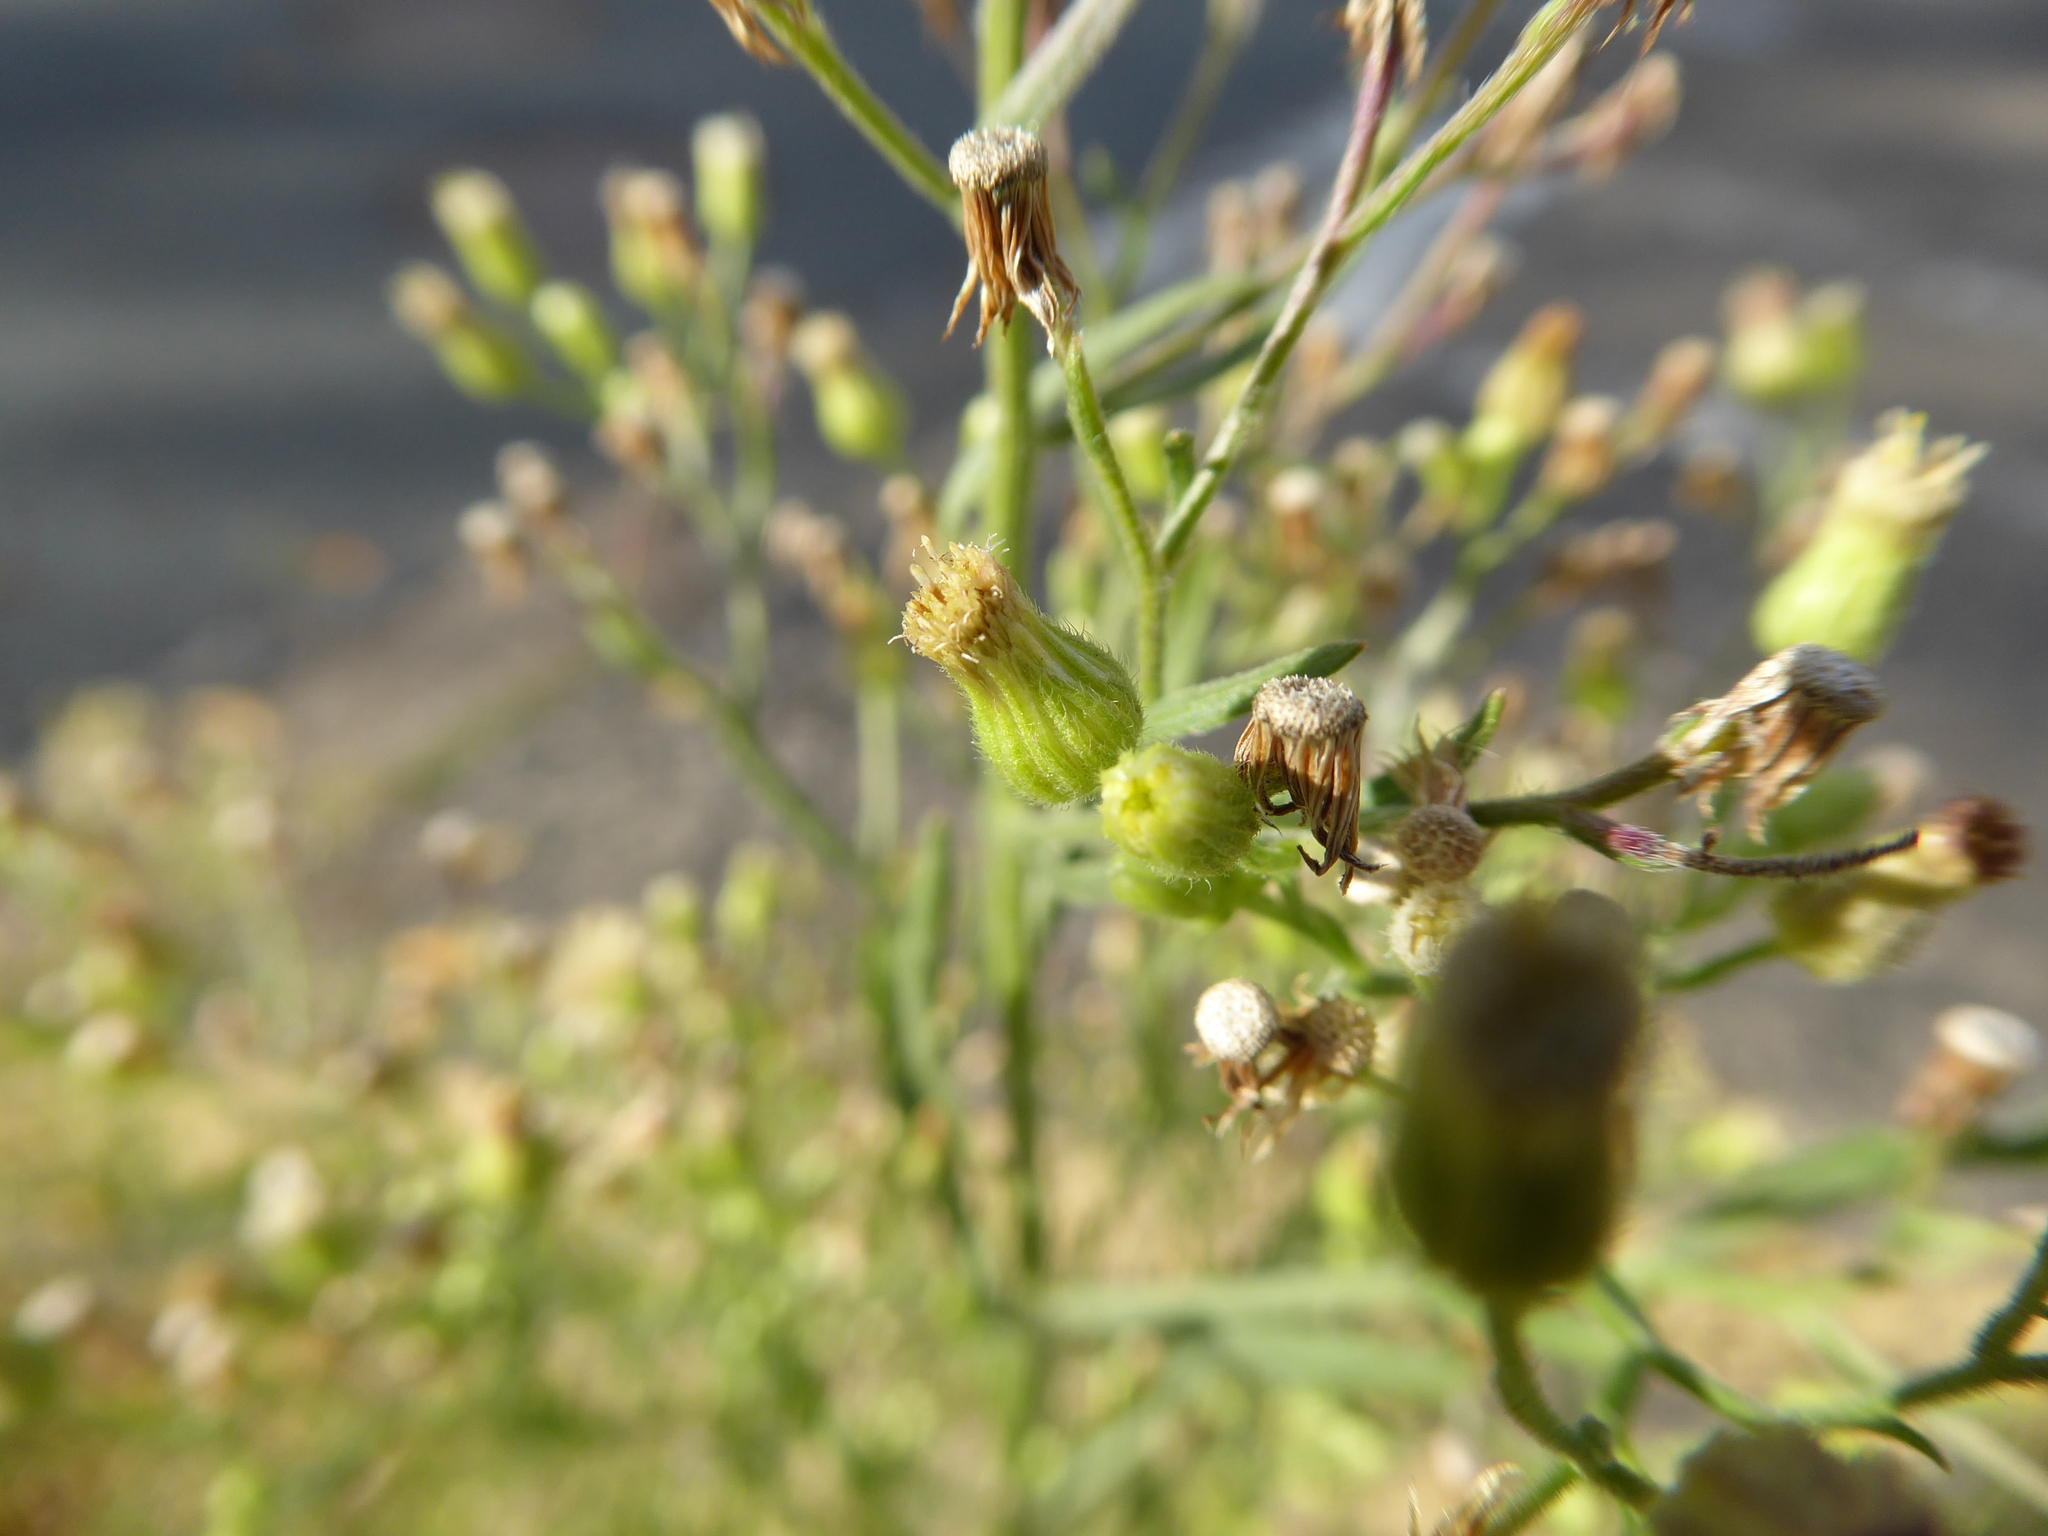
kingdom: Plantae
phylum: Tracheophyta
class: Magnoliopsida
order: Asterales
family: Asteraceae
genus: Erigeron
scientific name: Erigeron sumatrensis
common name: Daisy
